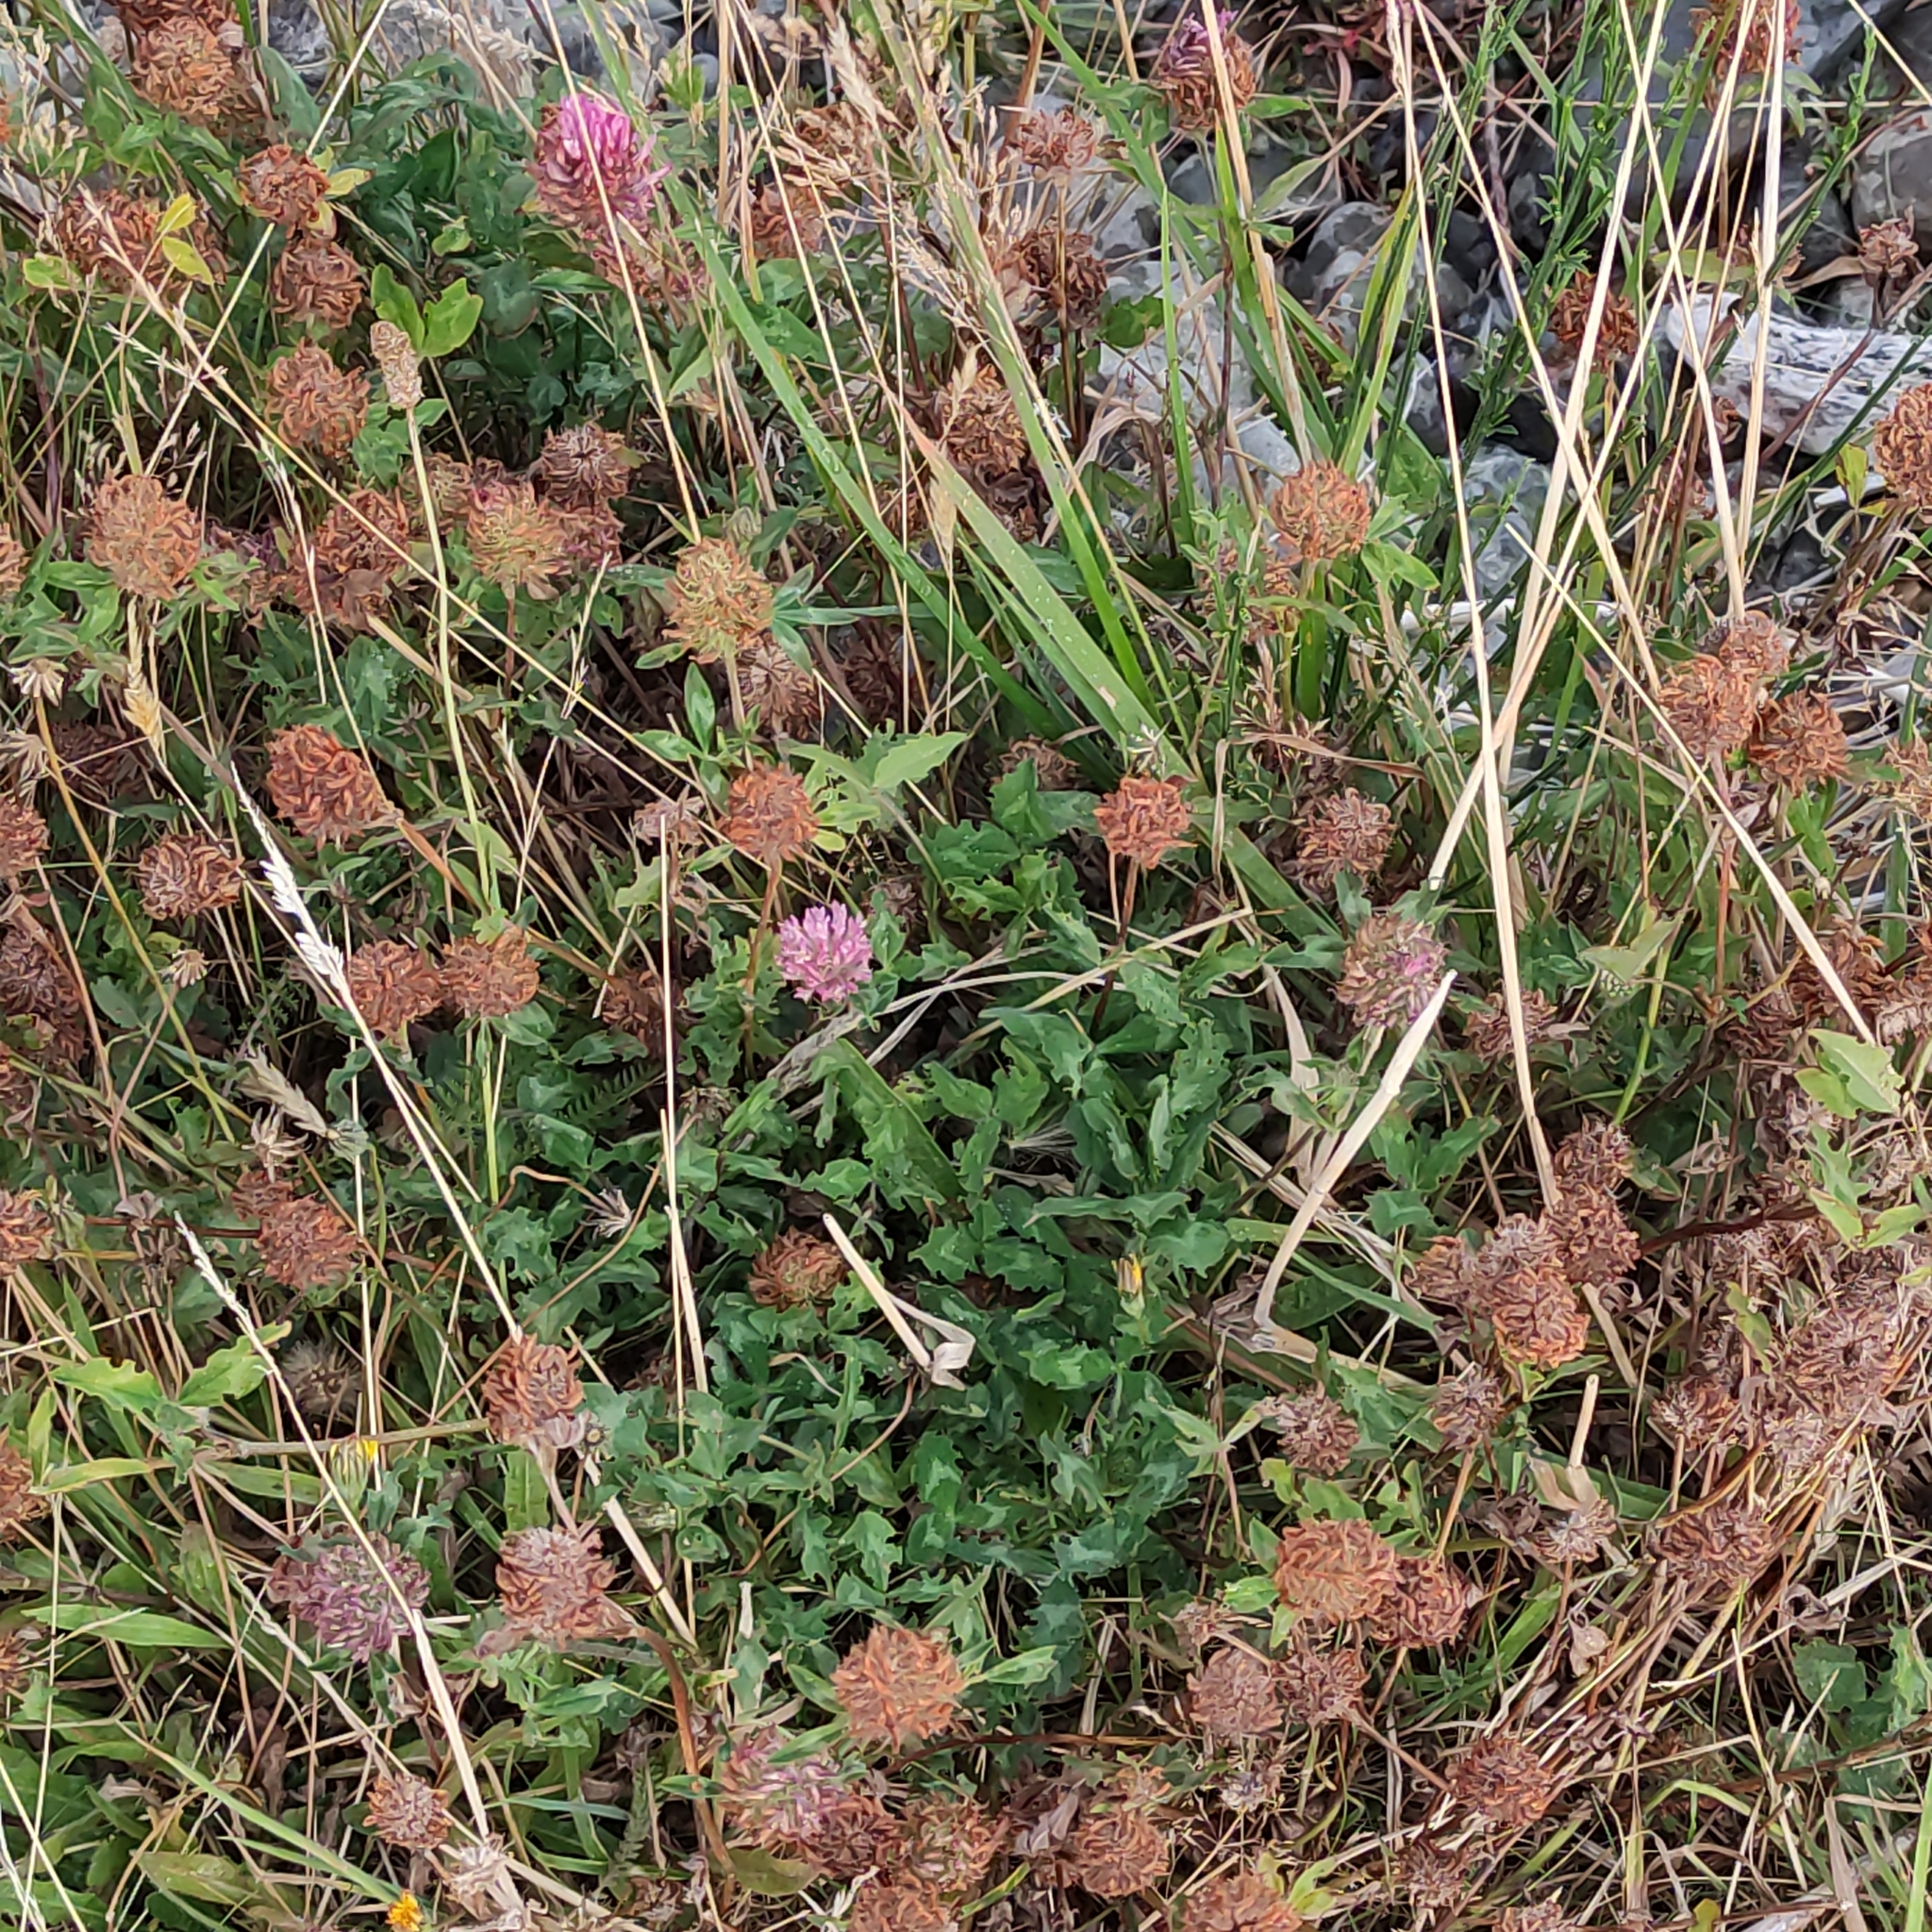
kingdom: Plantae
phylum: Tracheophyta
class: Magnoliopsida
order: Fabales
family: Fabaceae
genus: Trifolium
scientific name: Trifolium pratense
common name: Red clover
